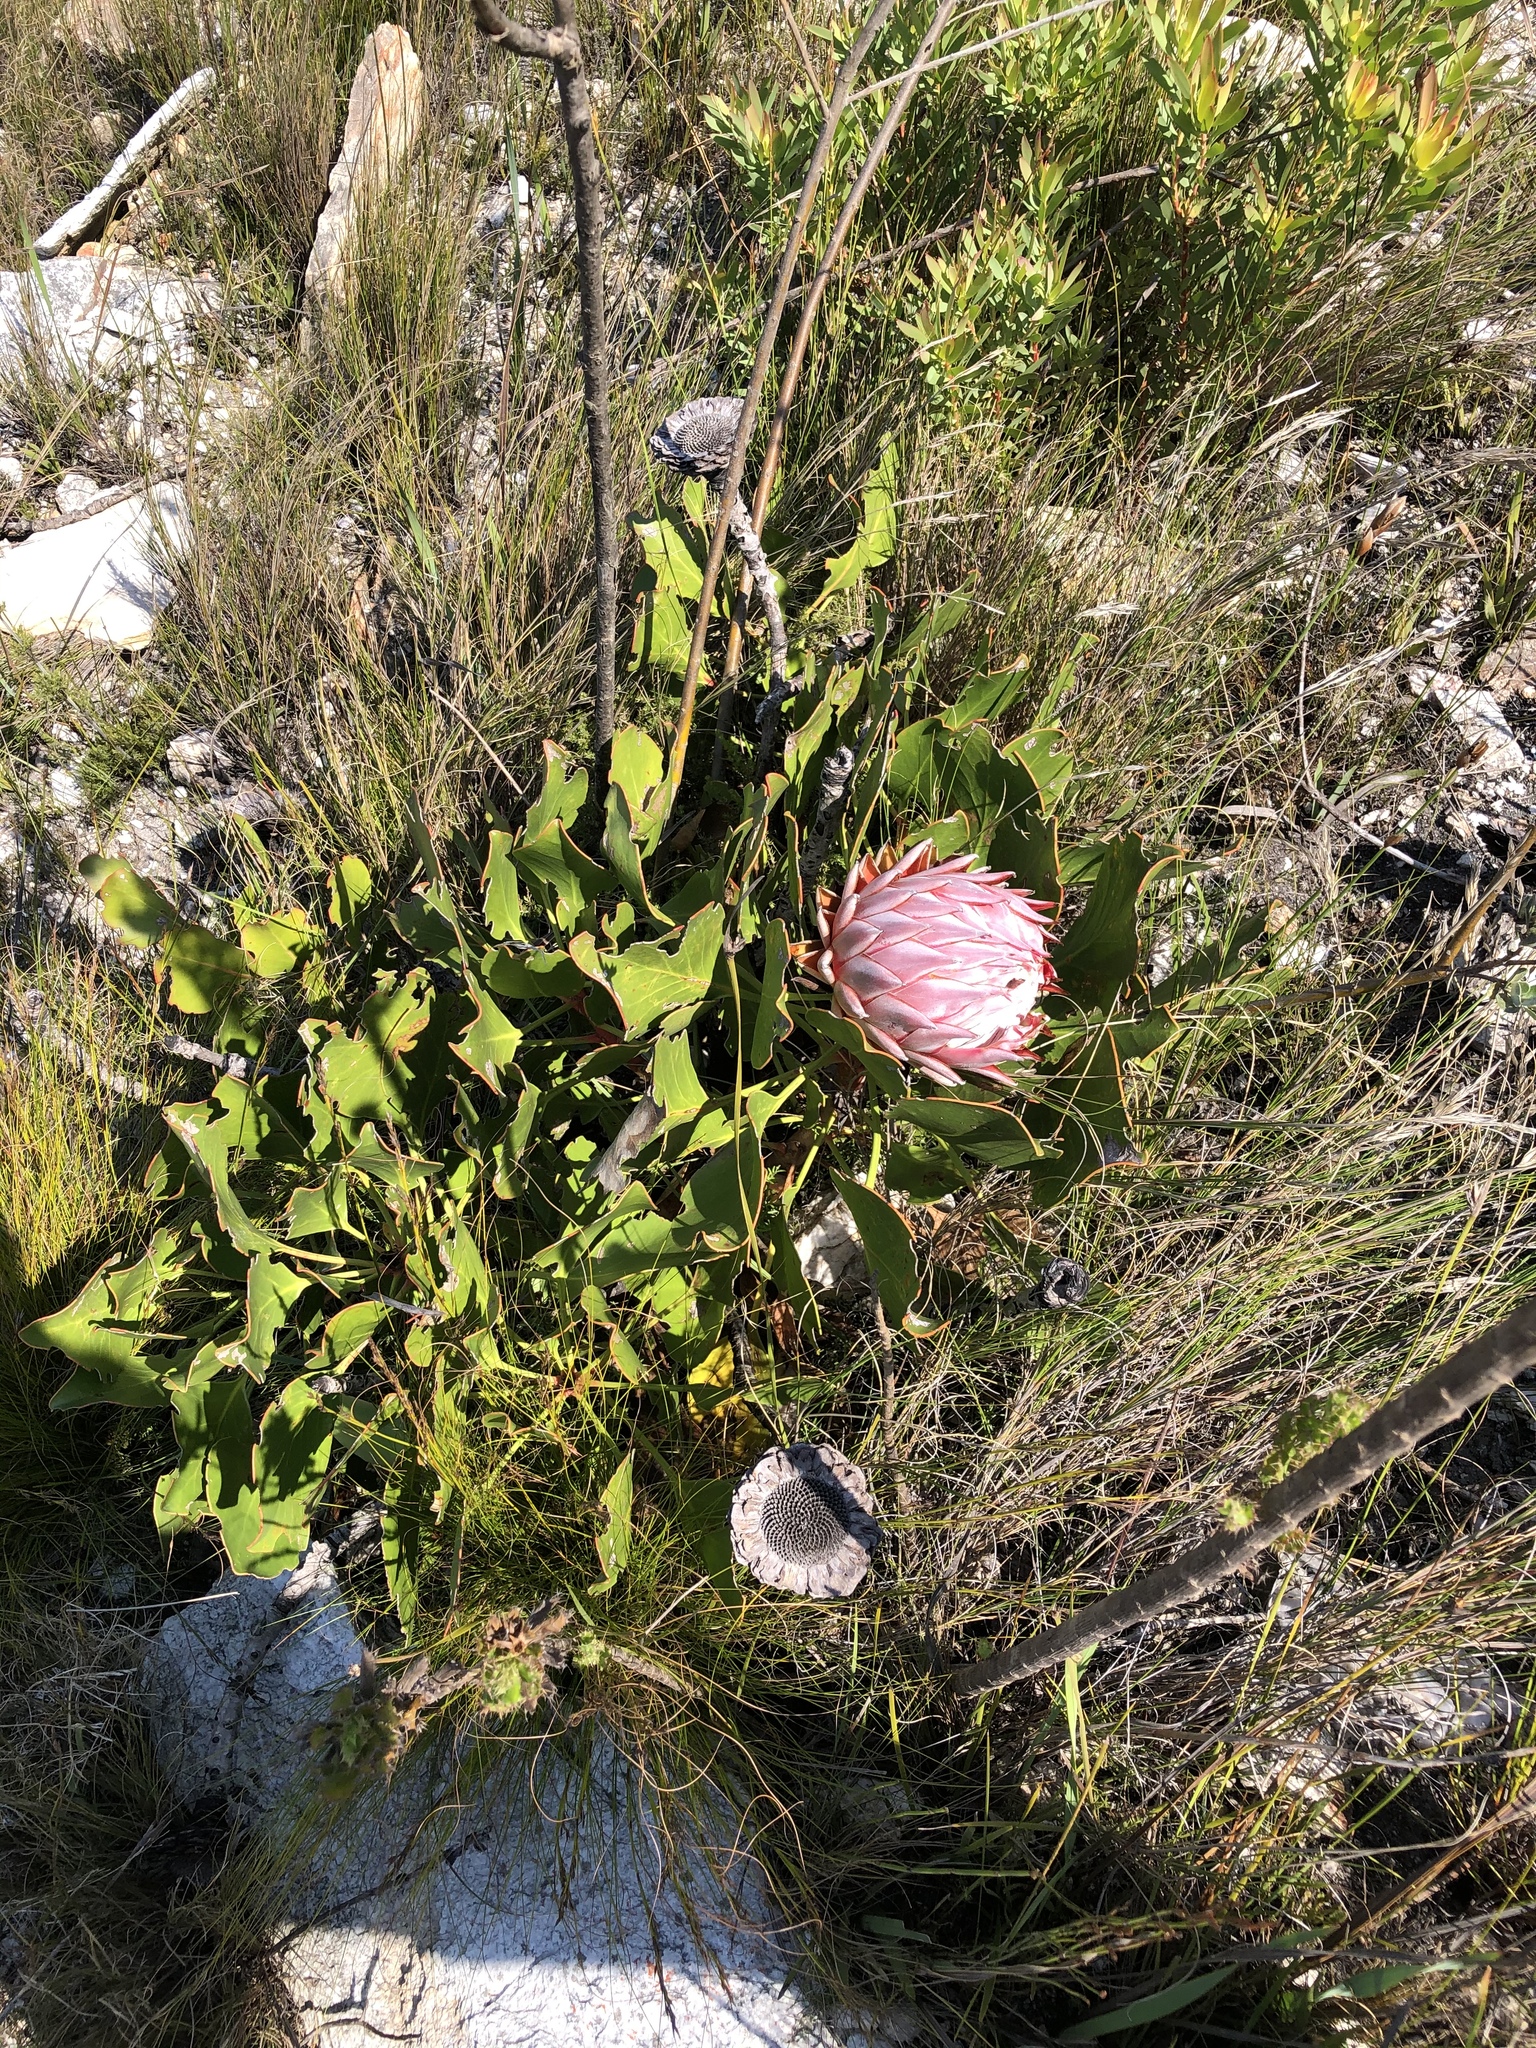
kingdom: Plantae
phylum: Tracheophyta
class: Magnoliopsida
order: Proteales
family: Proteaceae
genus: Protea
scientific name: Protea cynaroides
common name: King protea
